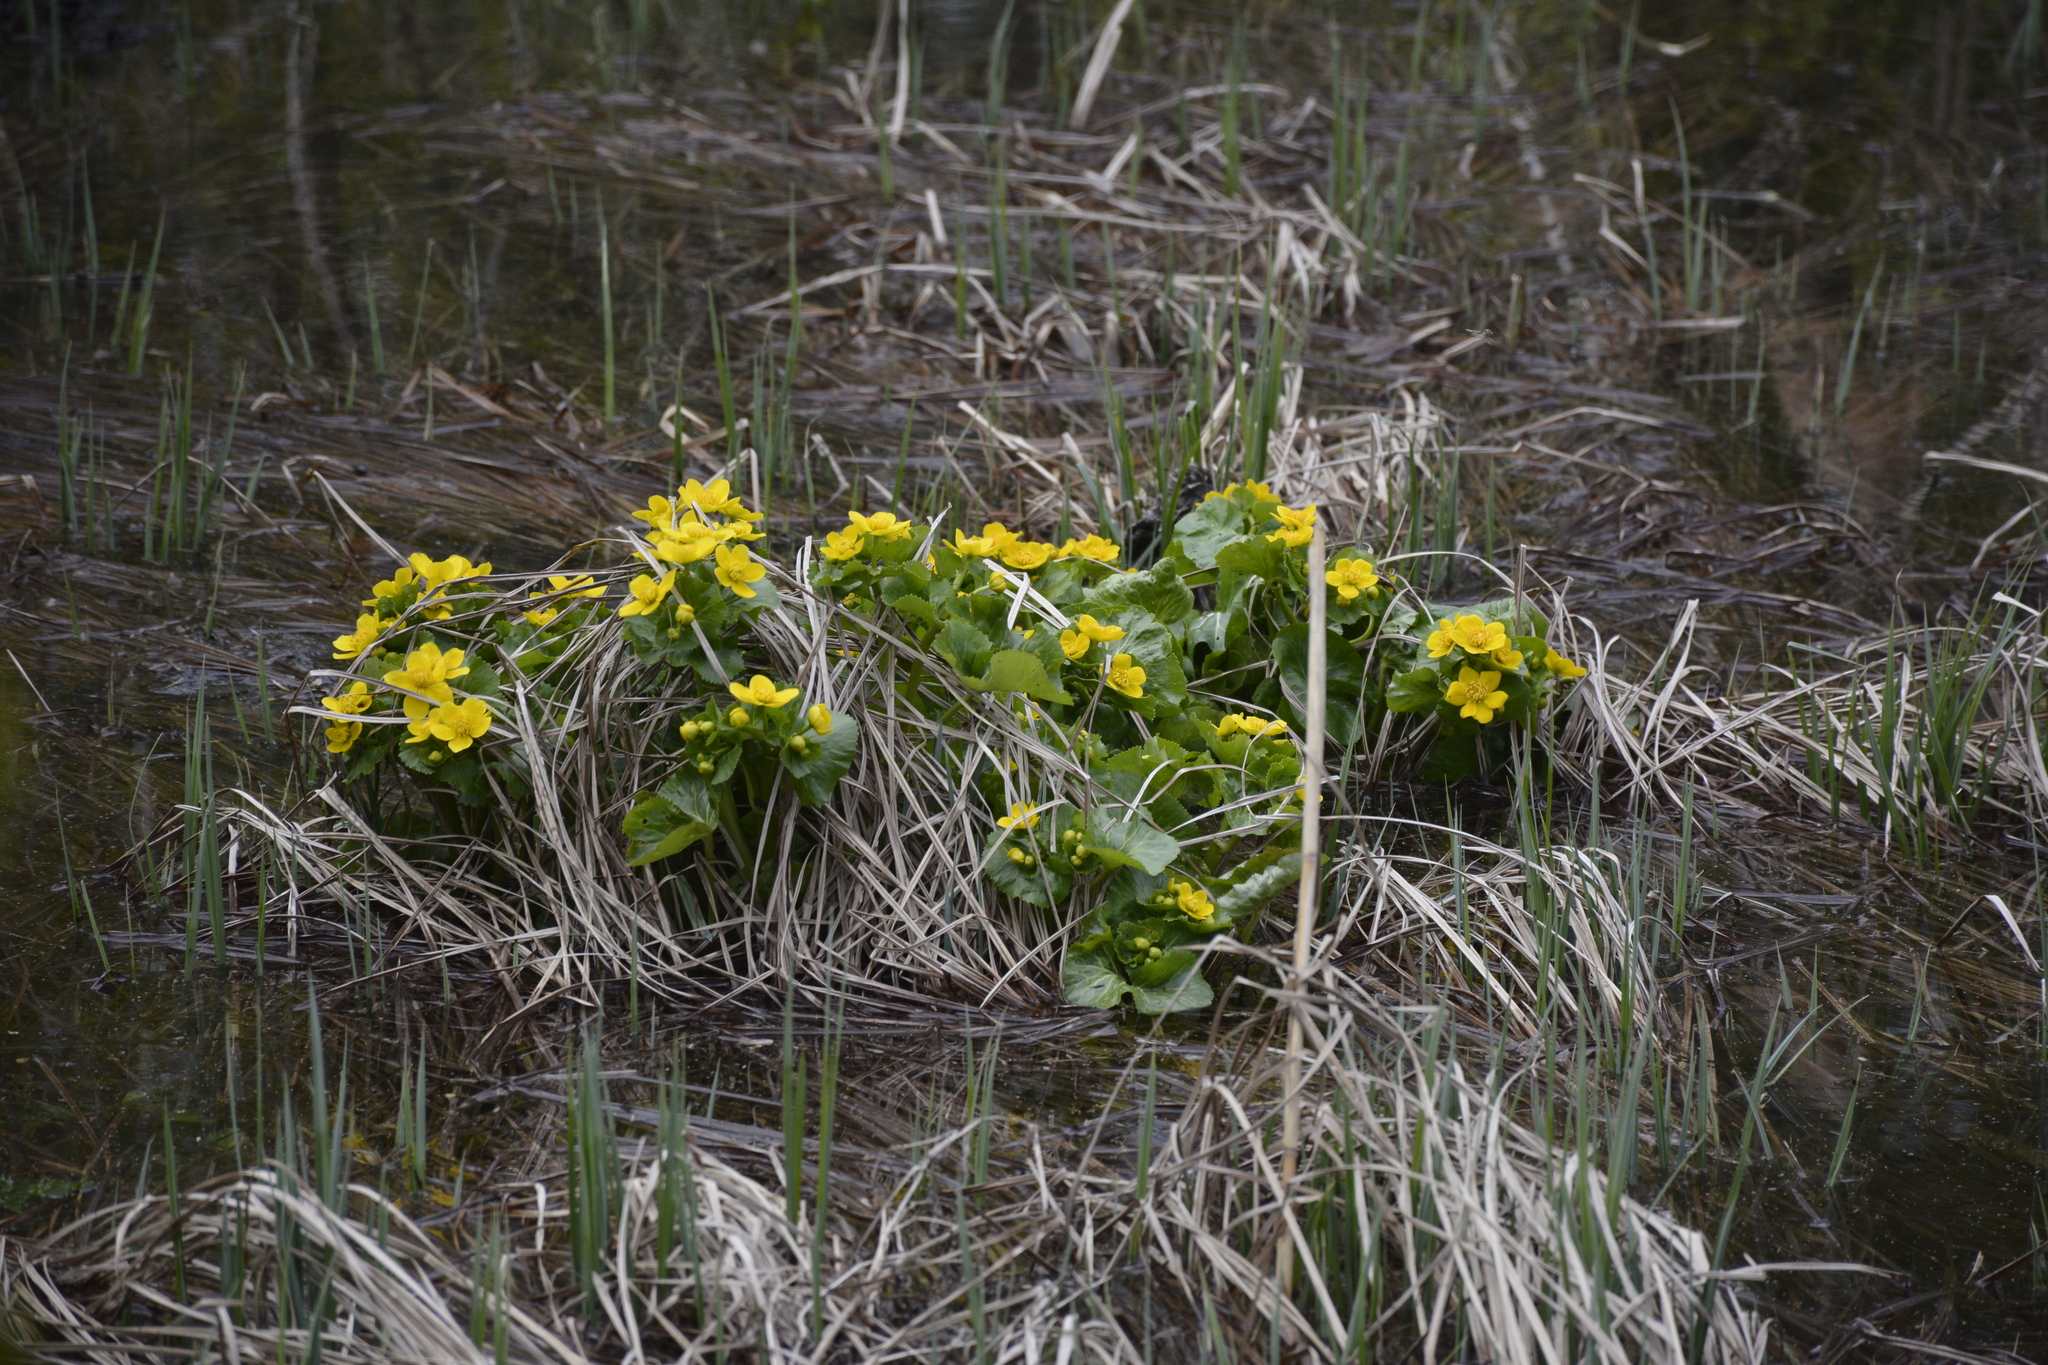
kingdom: Plantae
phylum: Tracheophyta
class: Magnoliopsida
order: Ranunculales
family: Ranunculaceae
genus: Caltha
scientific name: Caltha palustris
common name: Marsh marigold
